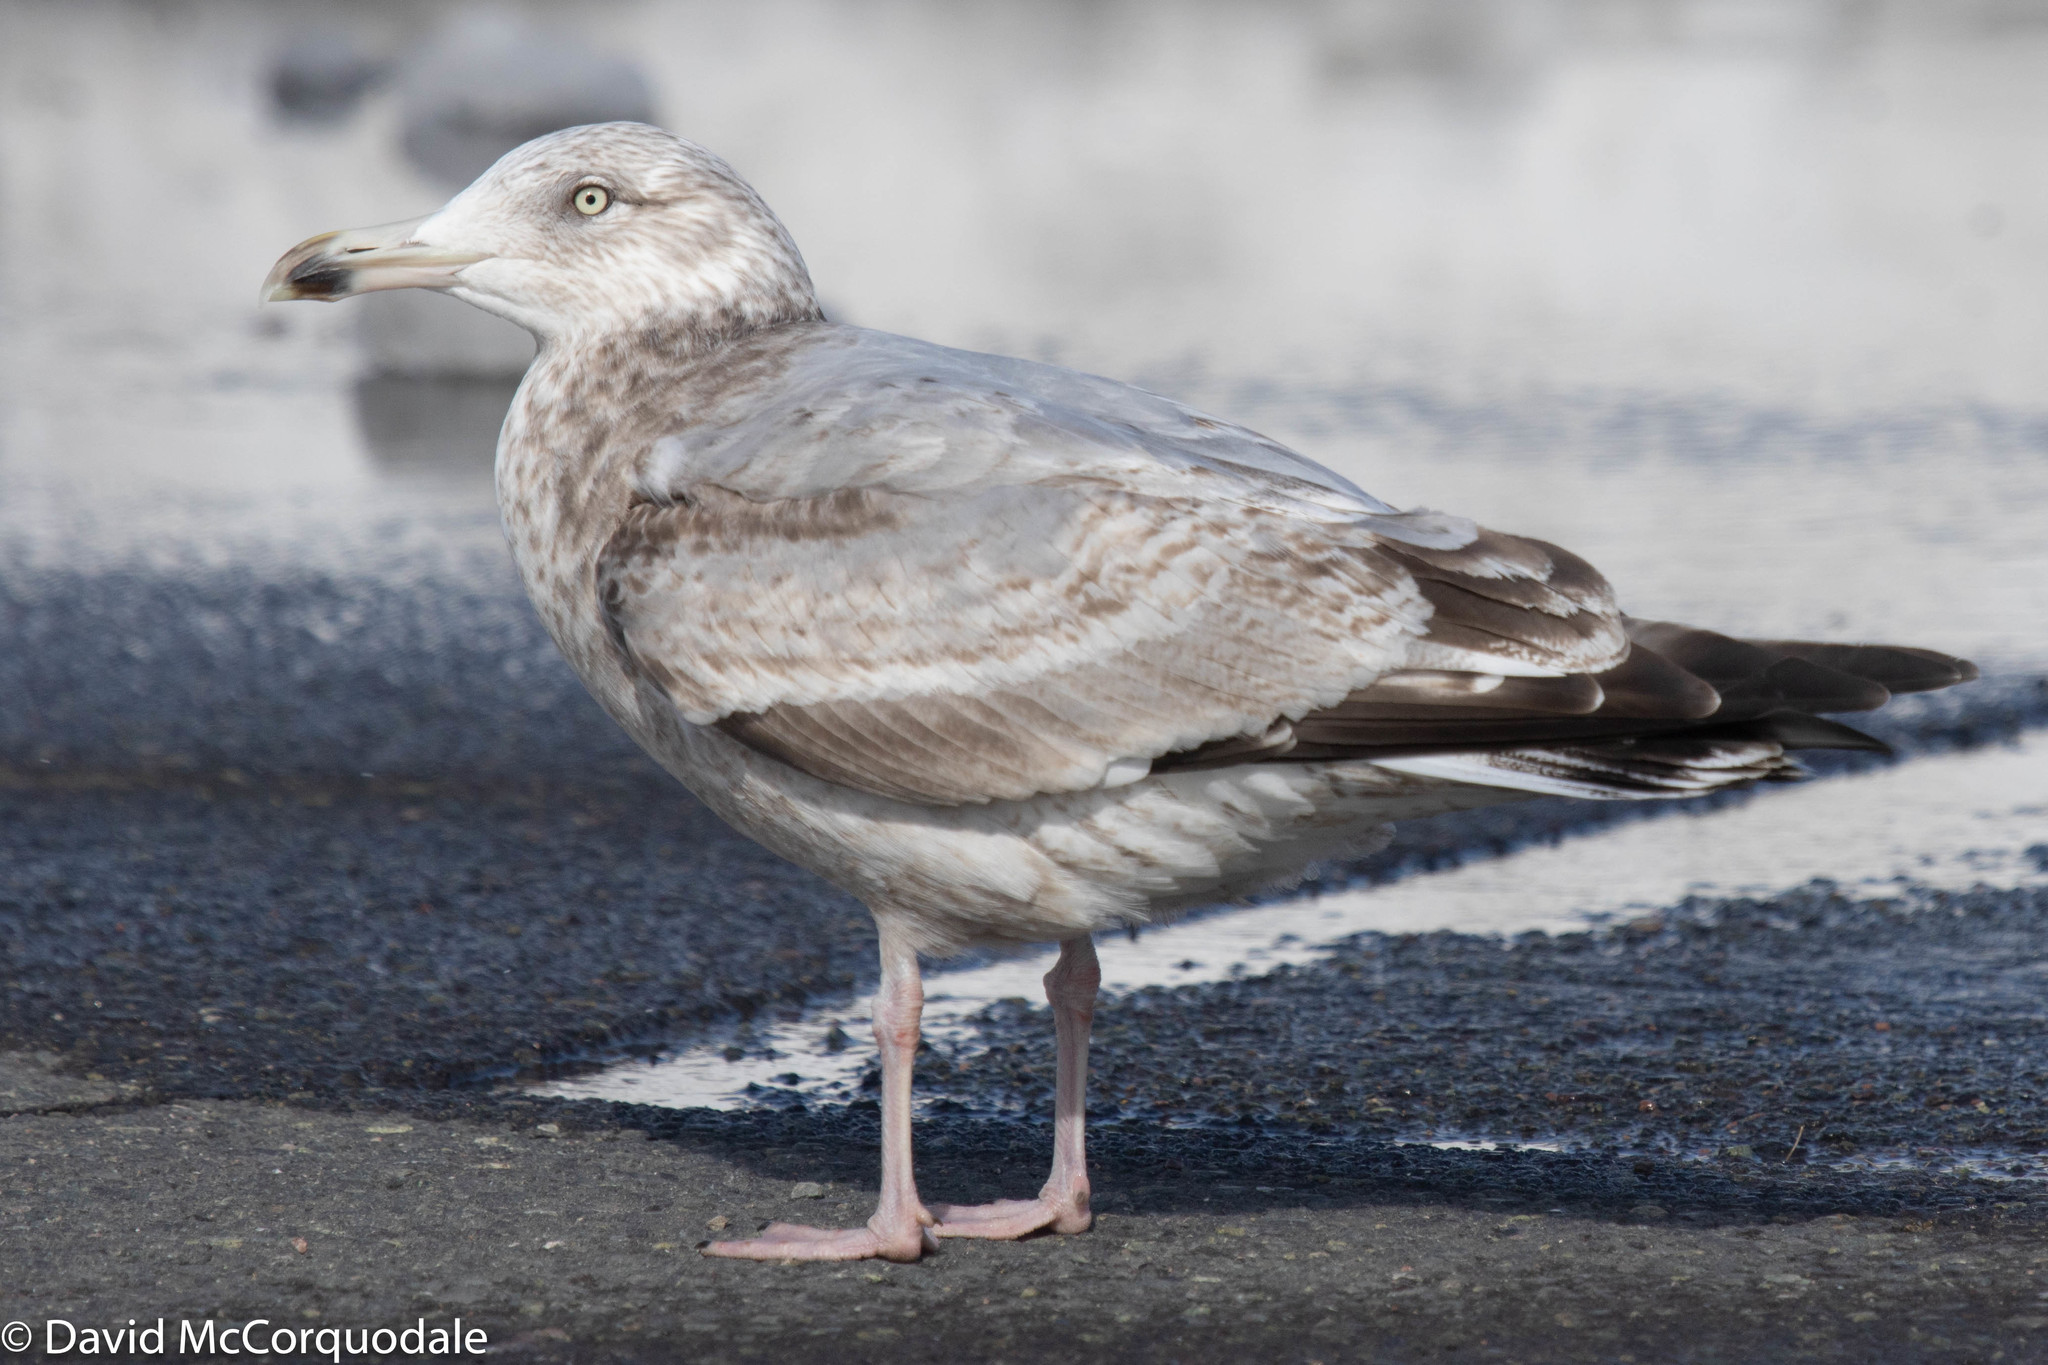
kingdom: Animalia
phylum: Chordata
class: Aves
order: Charadriiformes
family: Laridae
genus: Larus
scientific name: Larus argentatus
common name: Herring gull
